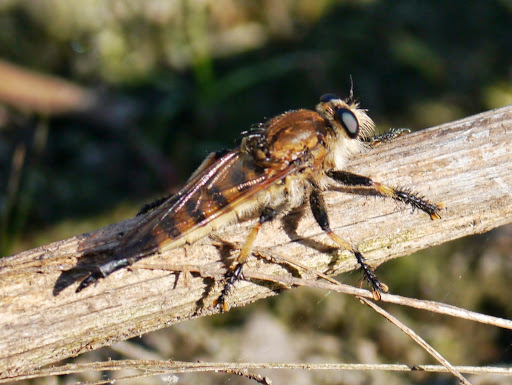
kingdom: Animalia
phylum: Arthropoda
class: Insecta
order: Diptera
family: Asilidae
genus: Promachus
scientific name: Promachus rufipes
